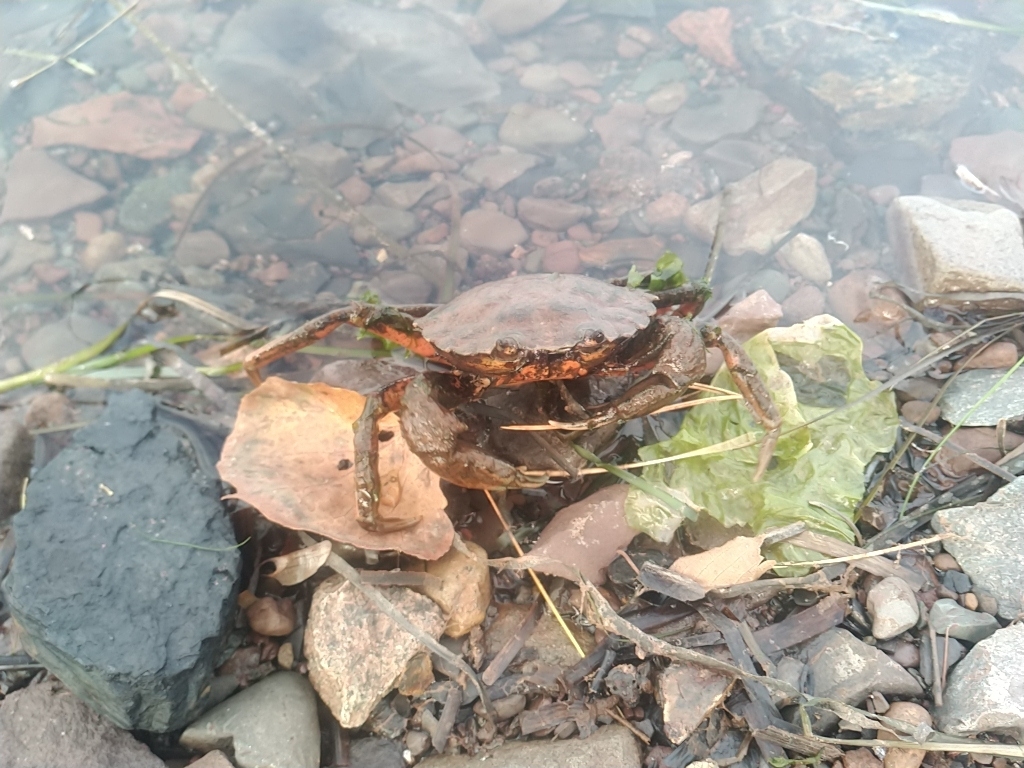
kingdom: Animalia
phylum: Arthropoda
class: Malacostraca
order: Decapoda
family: Carcinidae
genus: Carcinus
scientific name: Carcinus maenas
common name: European green crab
